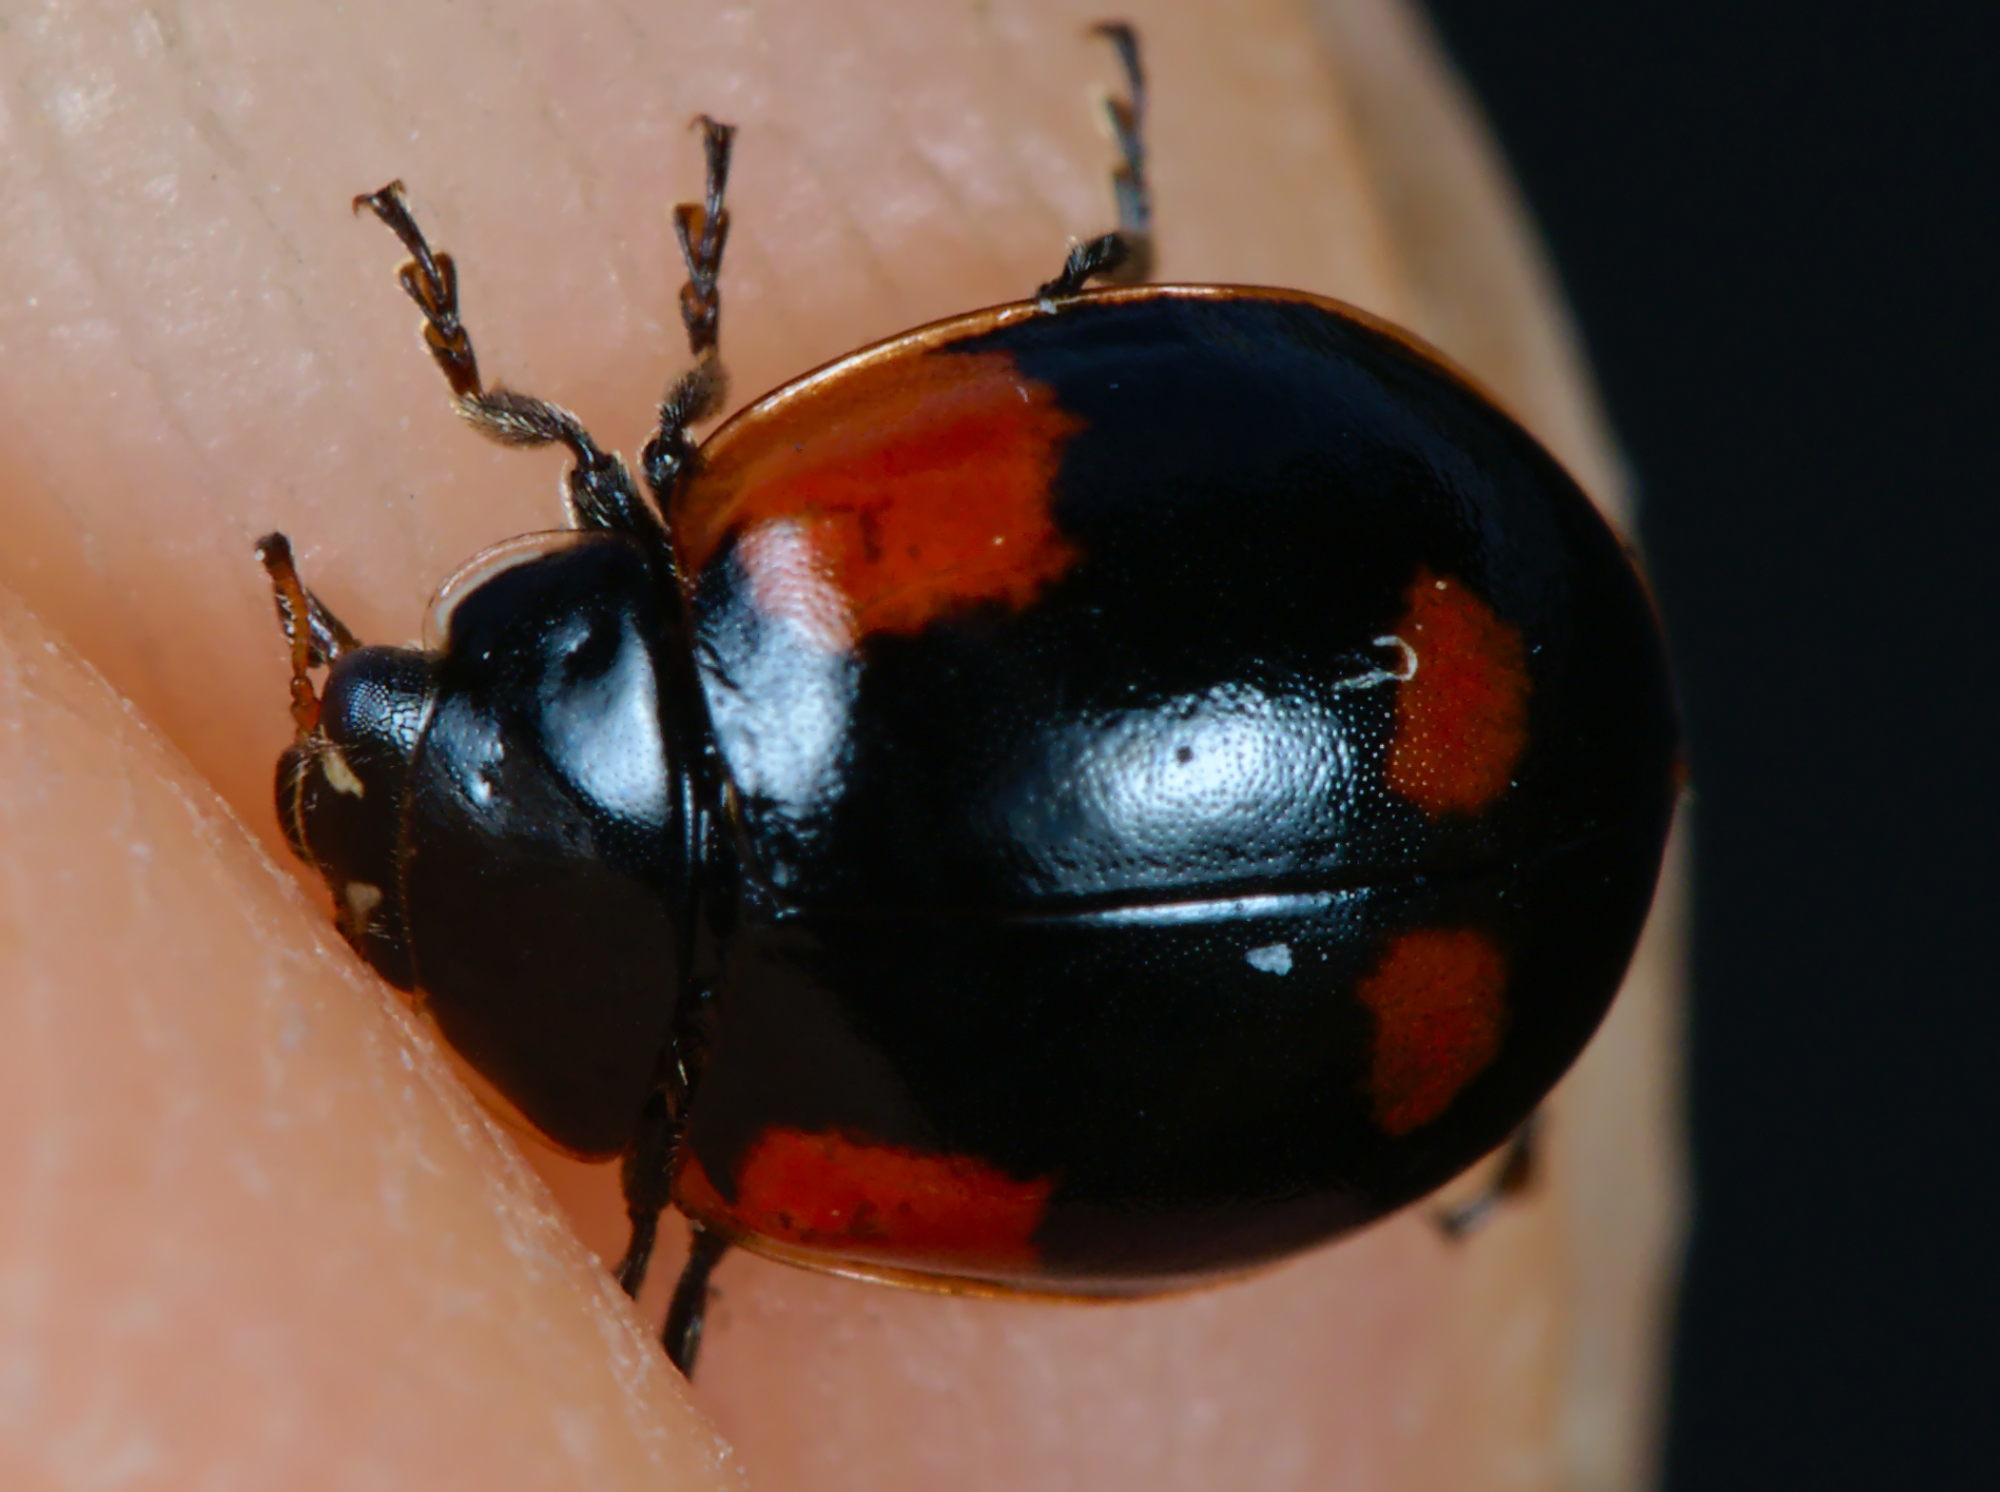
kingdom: Animalia
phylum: Arthropoda
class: Insecta
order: Coleoptera
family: Coccinellidae
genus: Adalia
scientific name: Adalia bipunctata
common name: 2-spot ladybird
